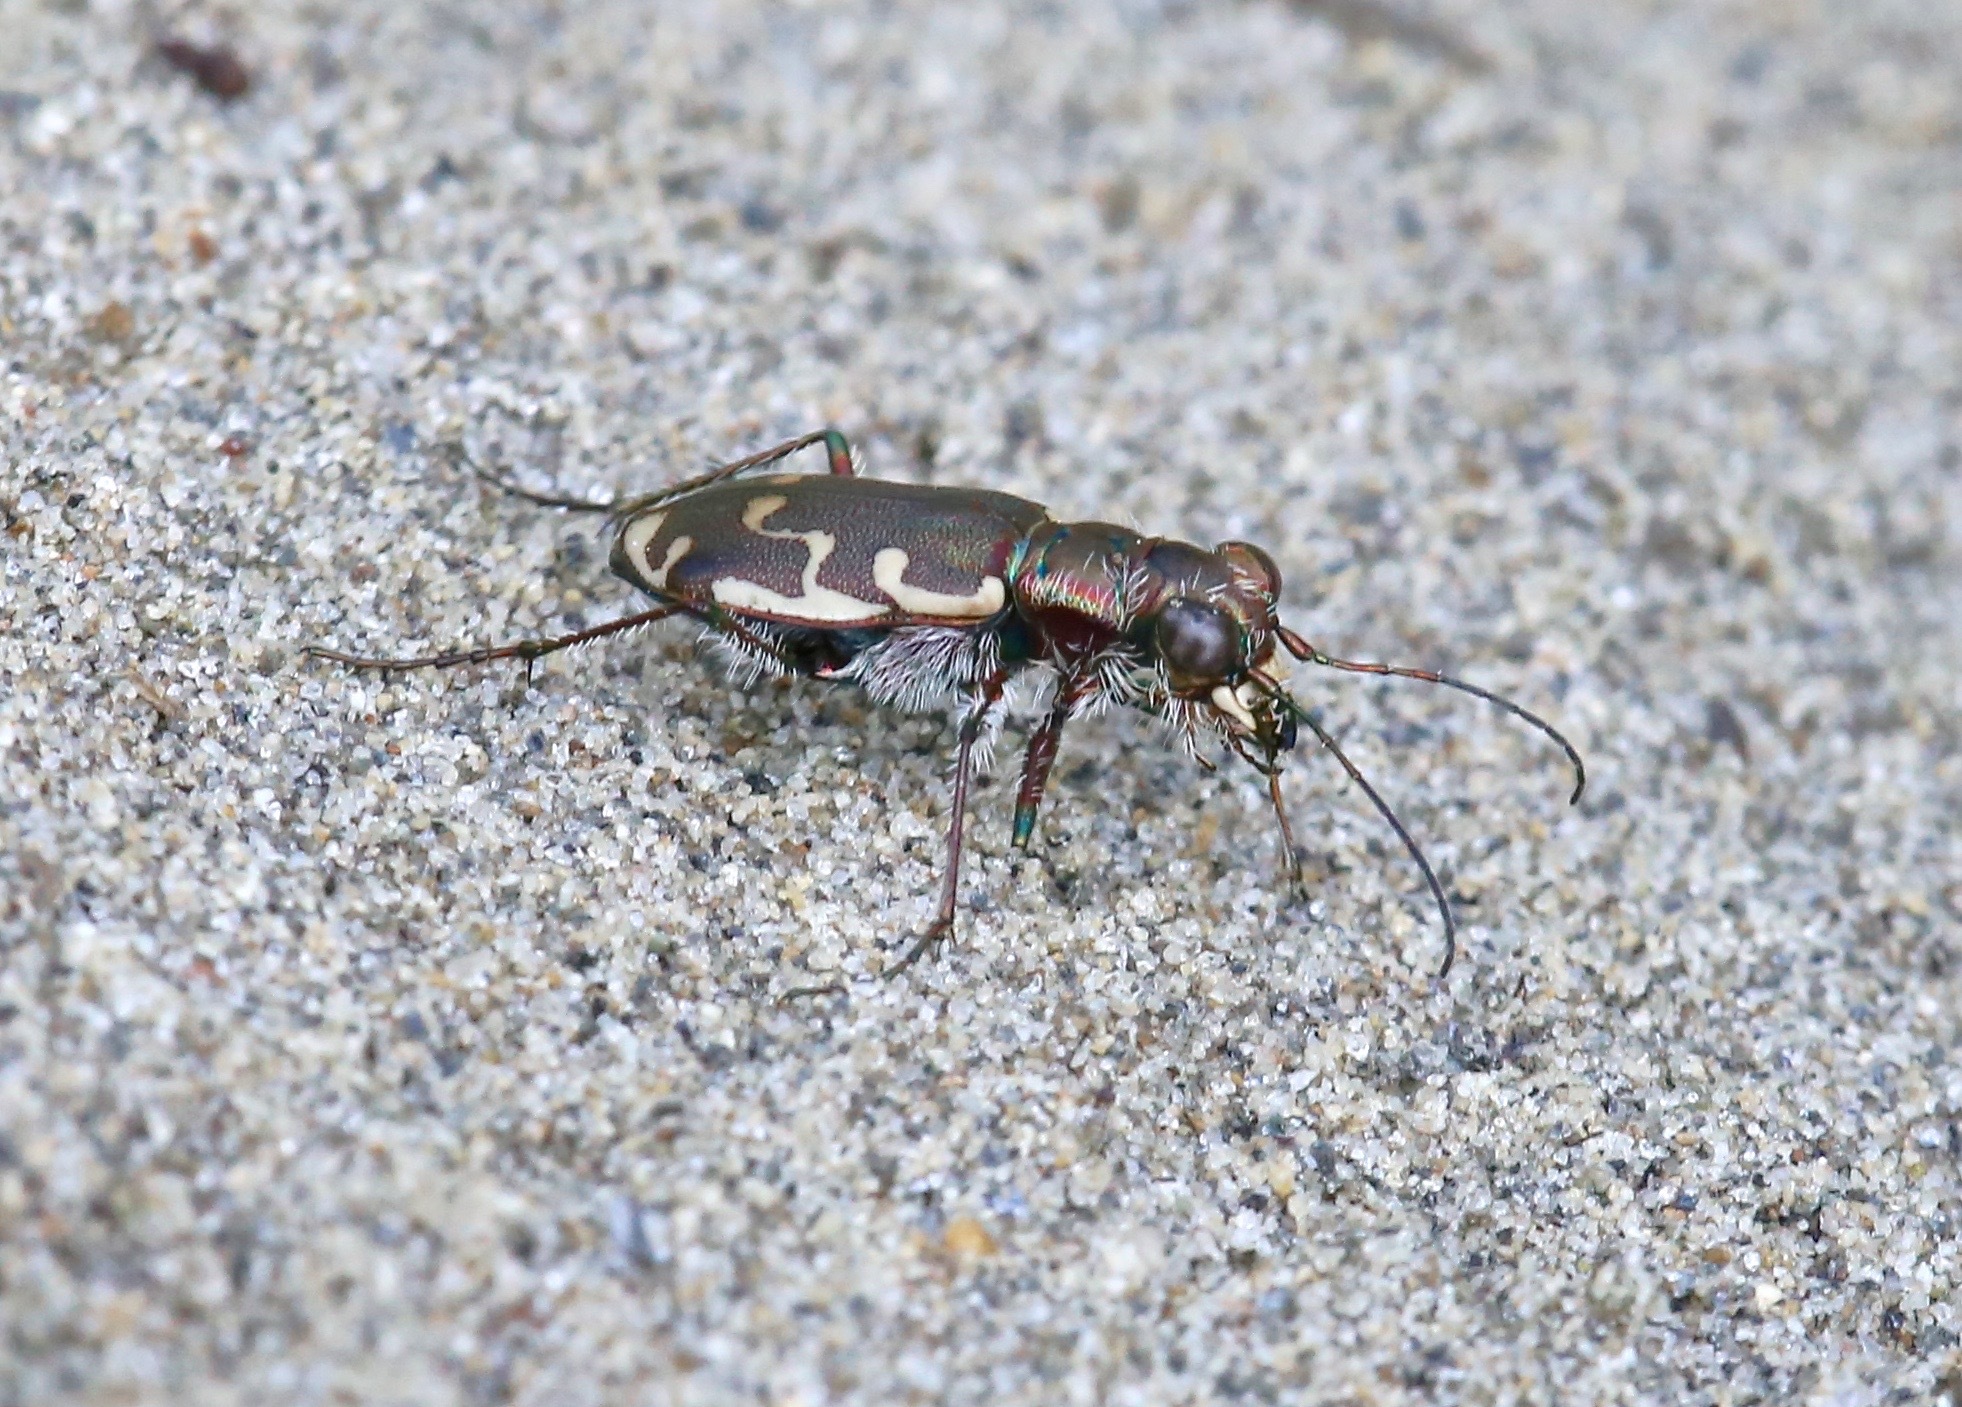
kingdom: Animalia
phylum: Arthropoda
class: Insecta
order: Coleoptera
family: Carabidae
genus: Cicindela
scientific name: Cicindela repanda
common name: Bronzed tiger beetle
